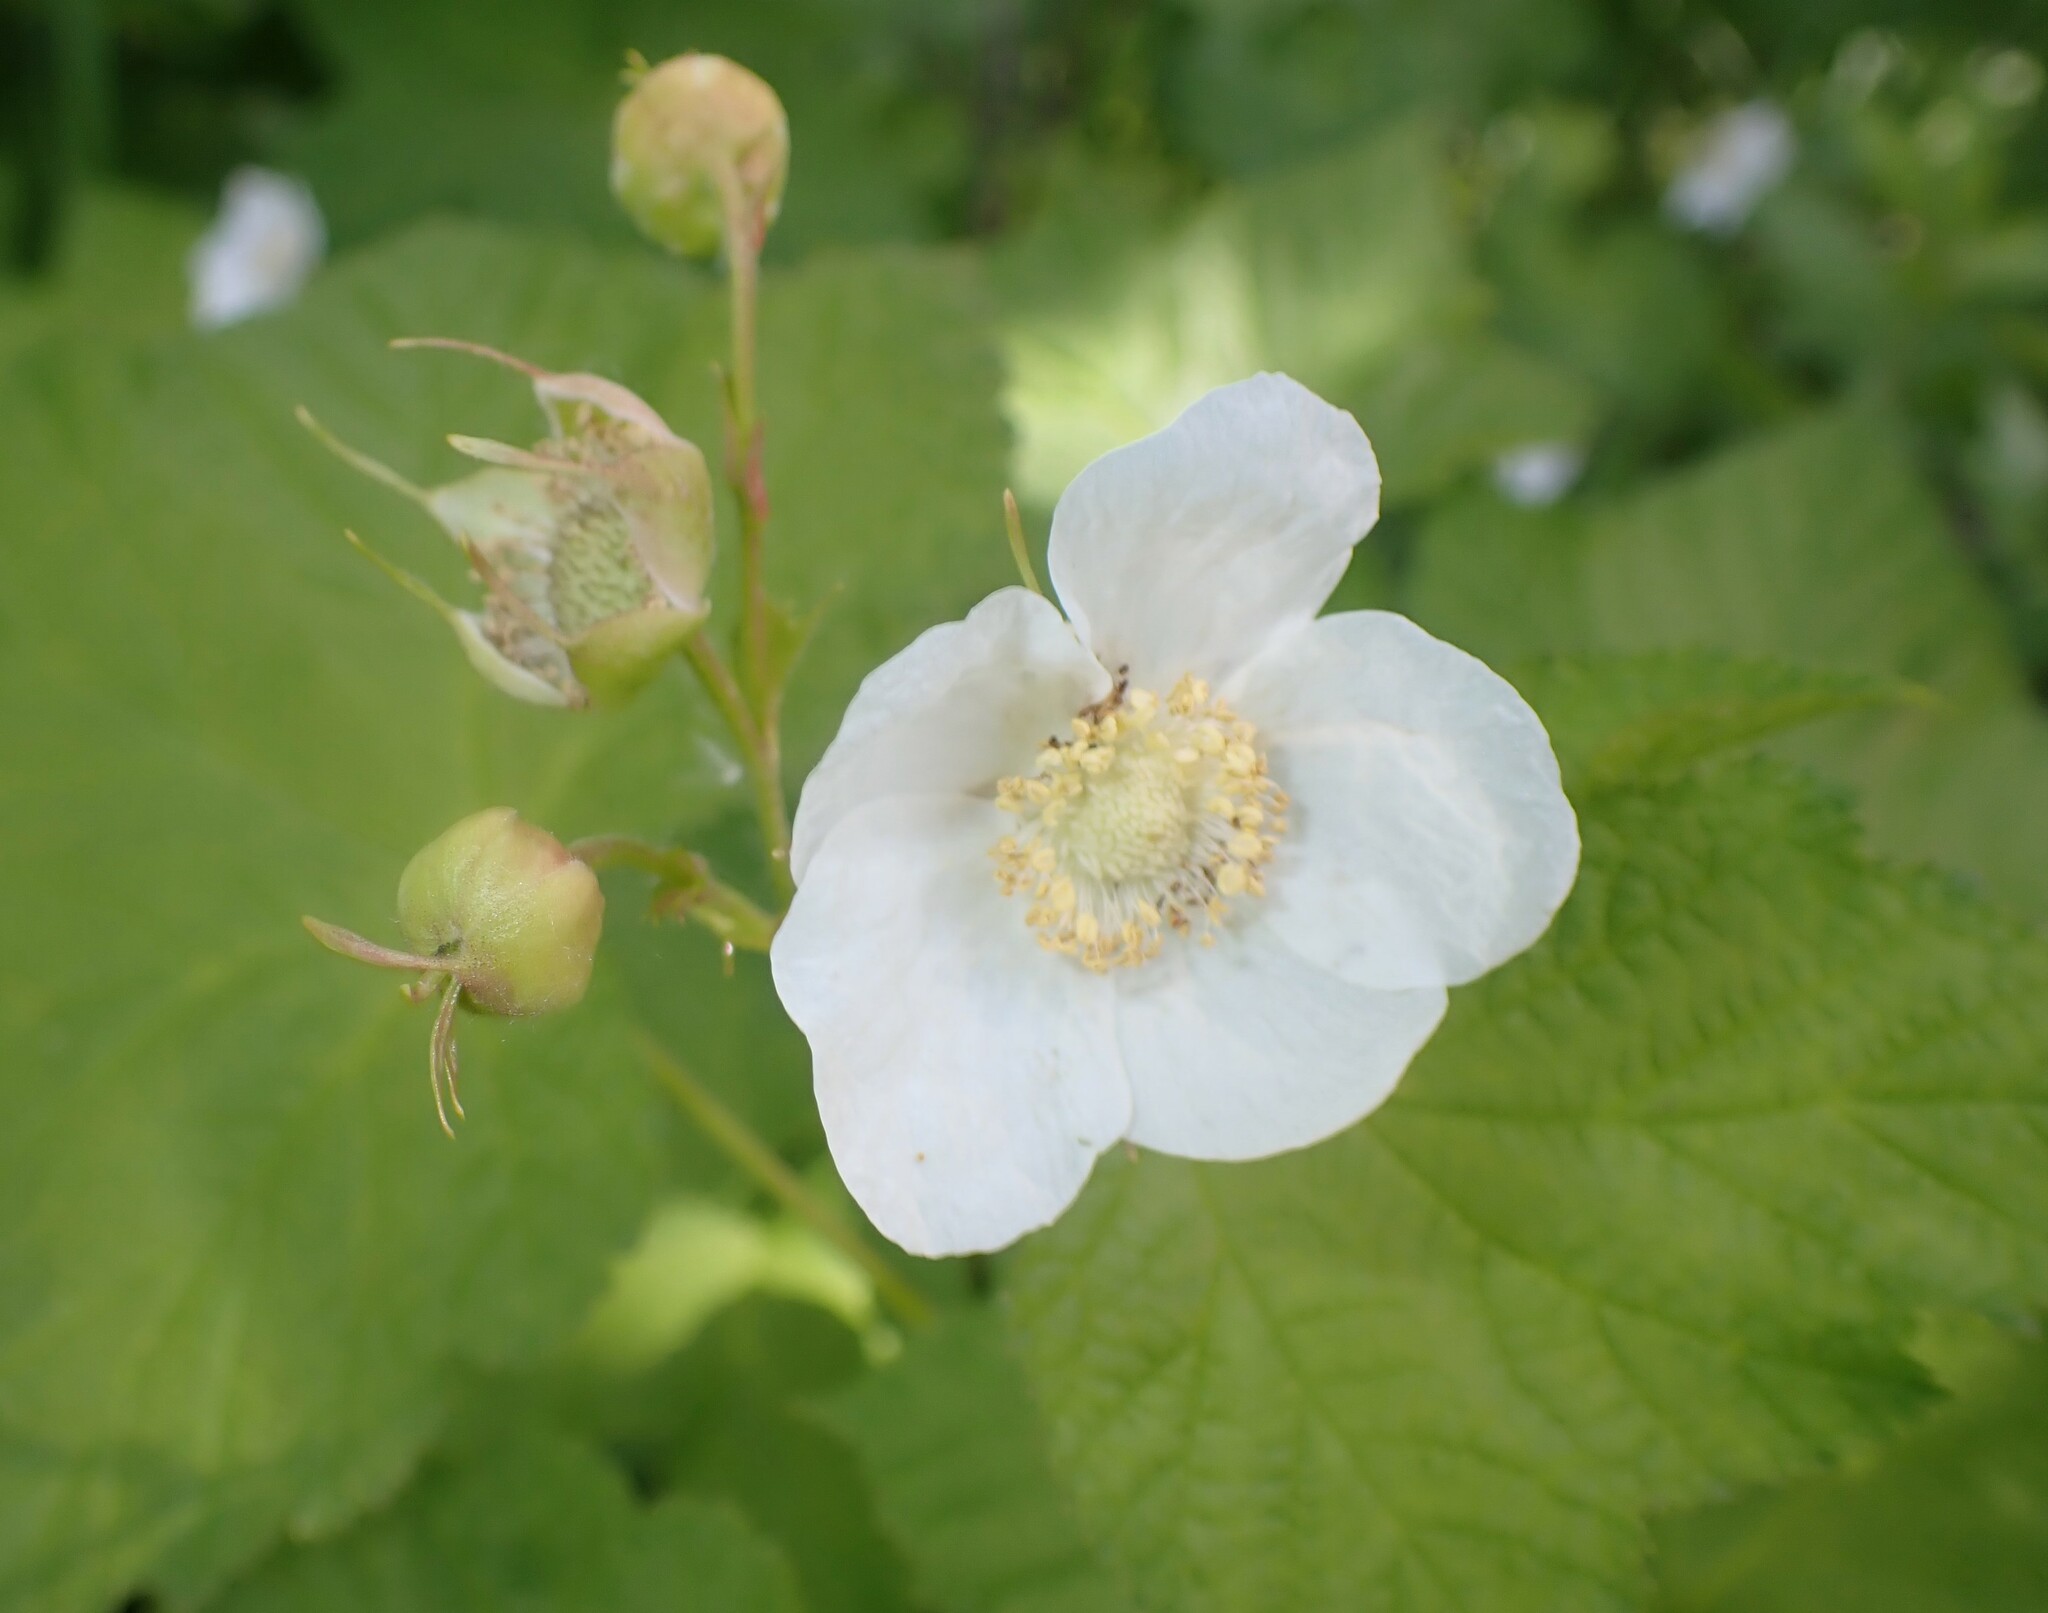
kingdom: Plantae
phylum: Tracheophyta
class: Magnoliopsida
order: Rosales
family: Rosaceae
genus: Rubus
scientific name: Rubus parviflorus
